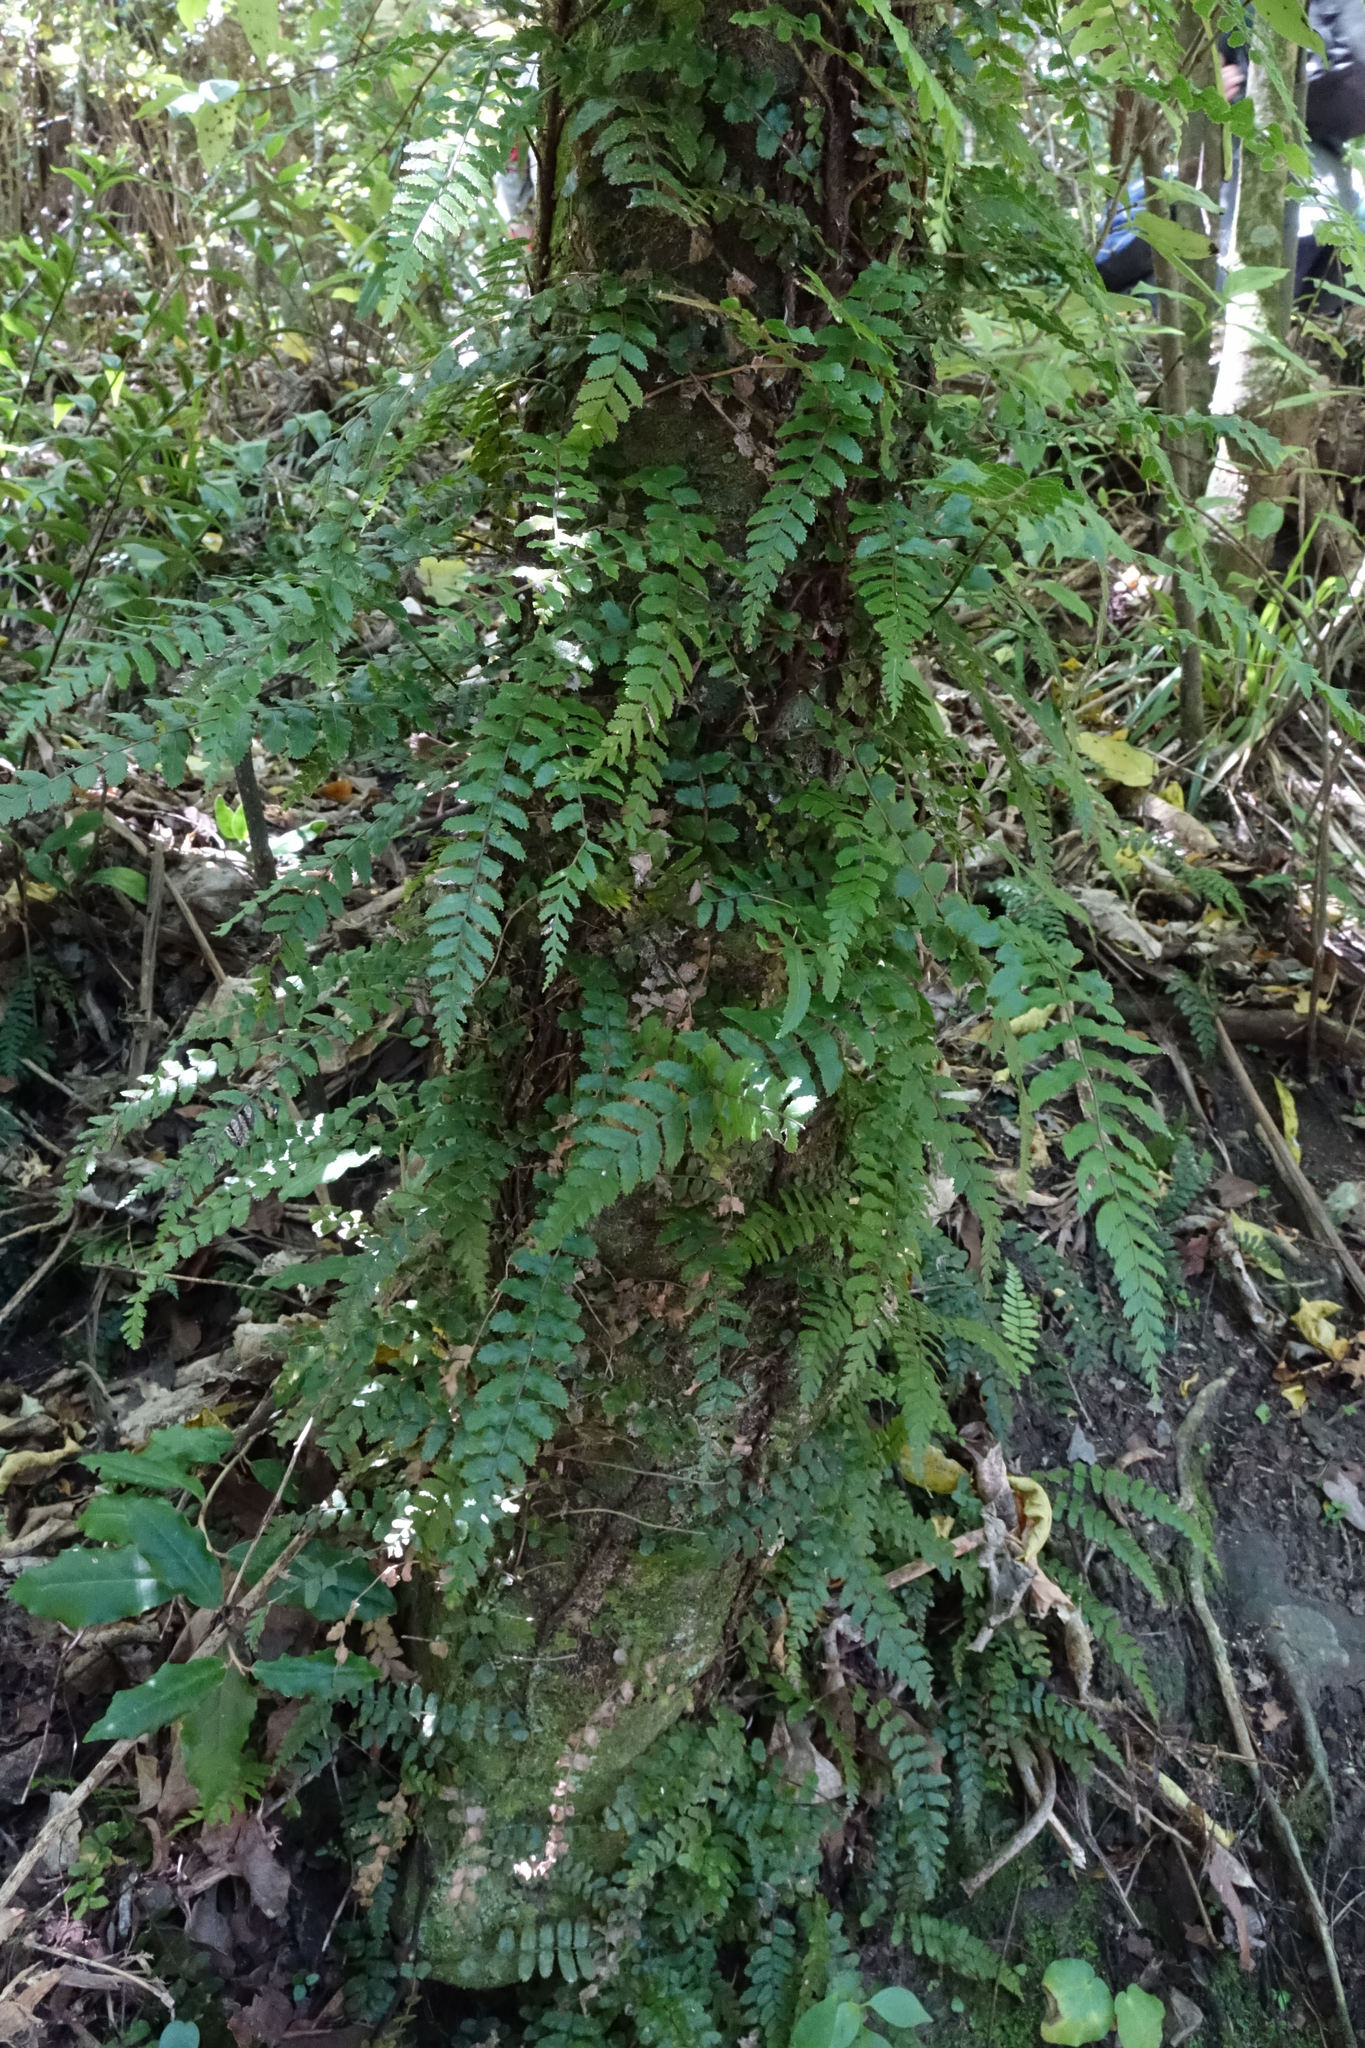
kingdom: Plantae
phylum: Tracheophyta
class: Polypodiopsida
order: Polypodiales
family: Blechnaceae
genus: Icarus
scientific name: Icarus filiformis
